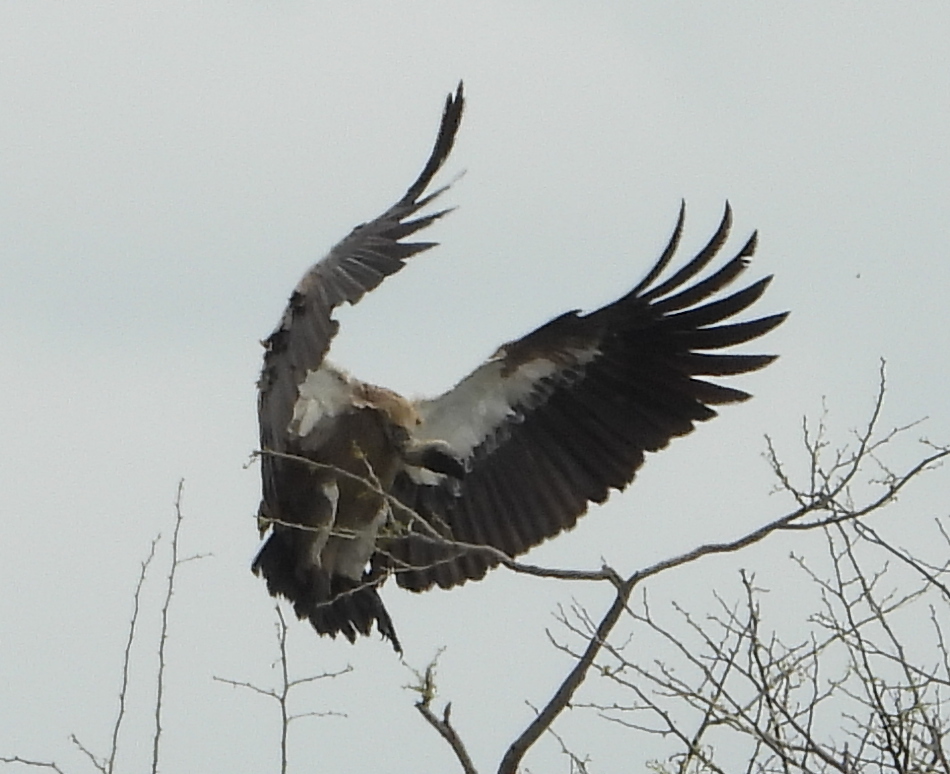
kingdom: Animalia
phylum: Chordata
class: Aves
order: Accipitriformes
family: Accipitridae
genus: Gyps
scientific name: Gyps africanus
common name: White-backed vulture
